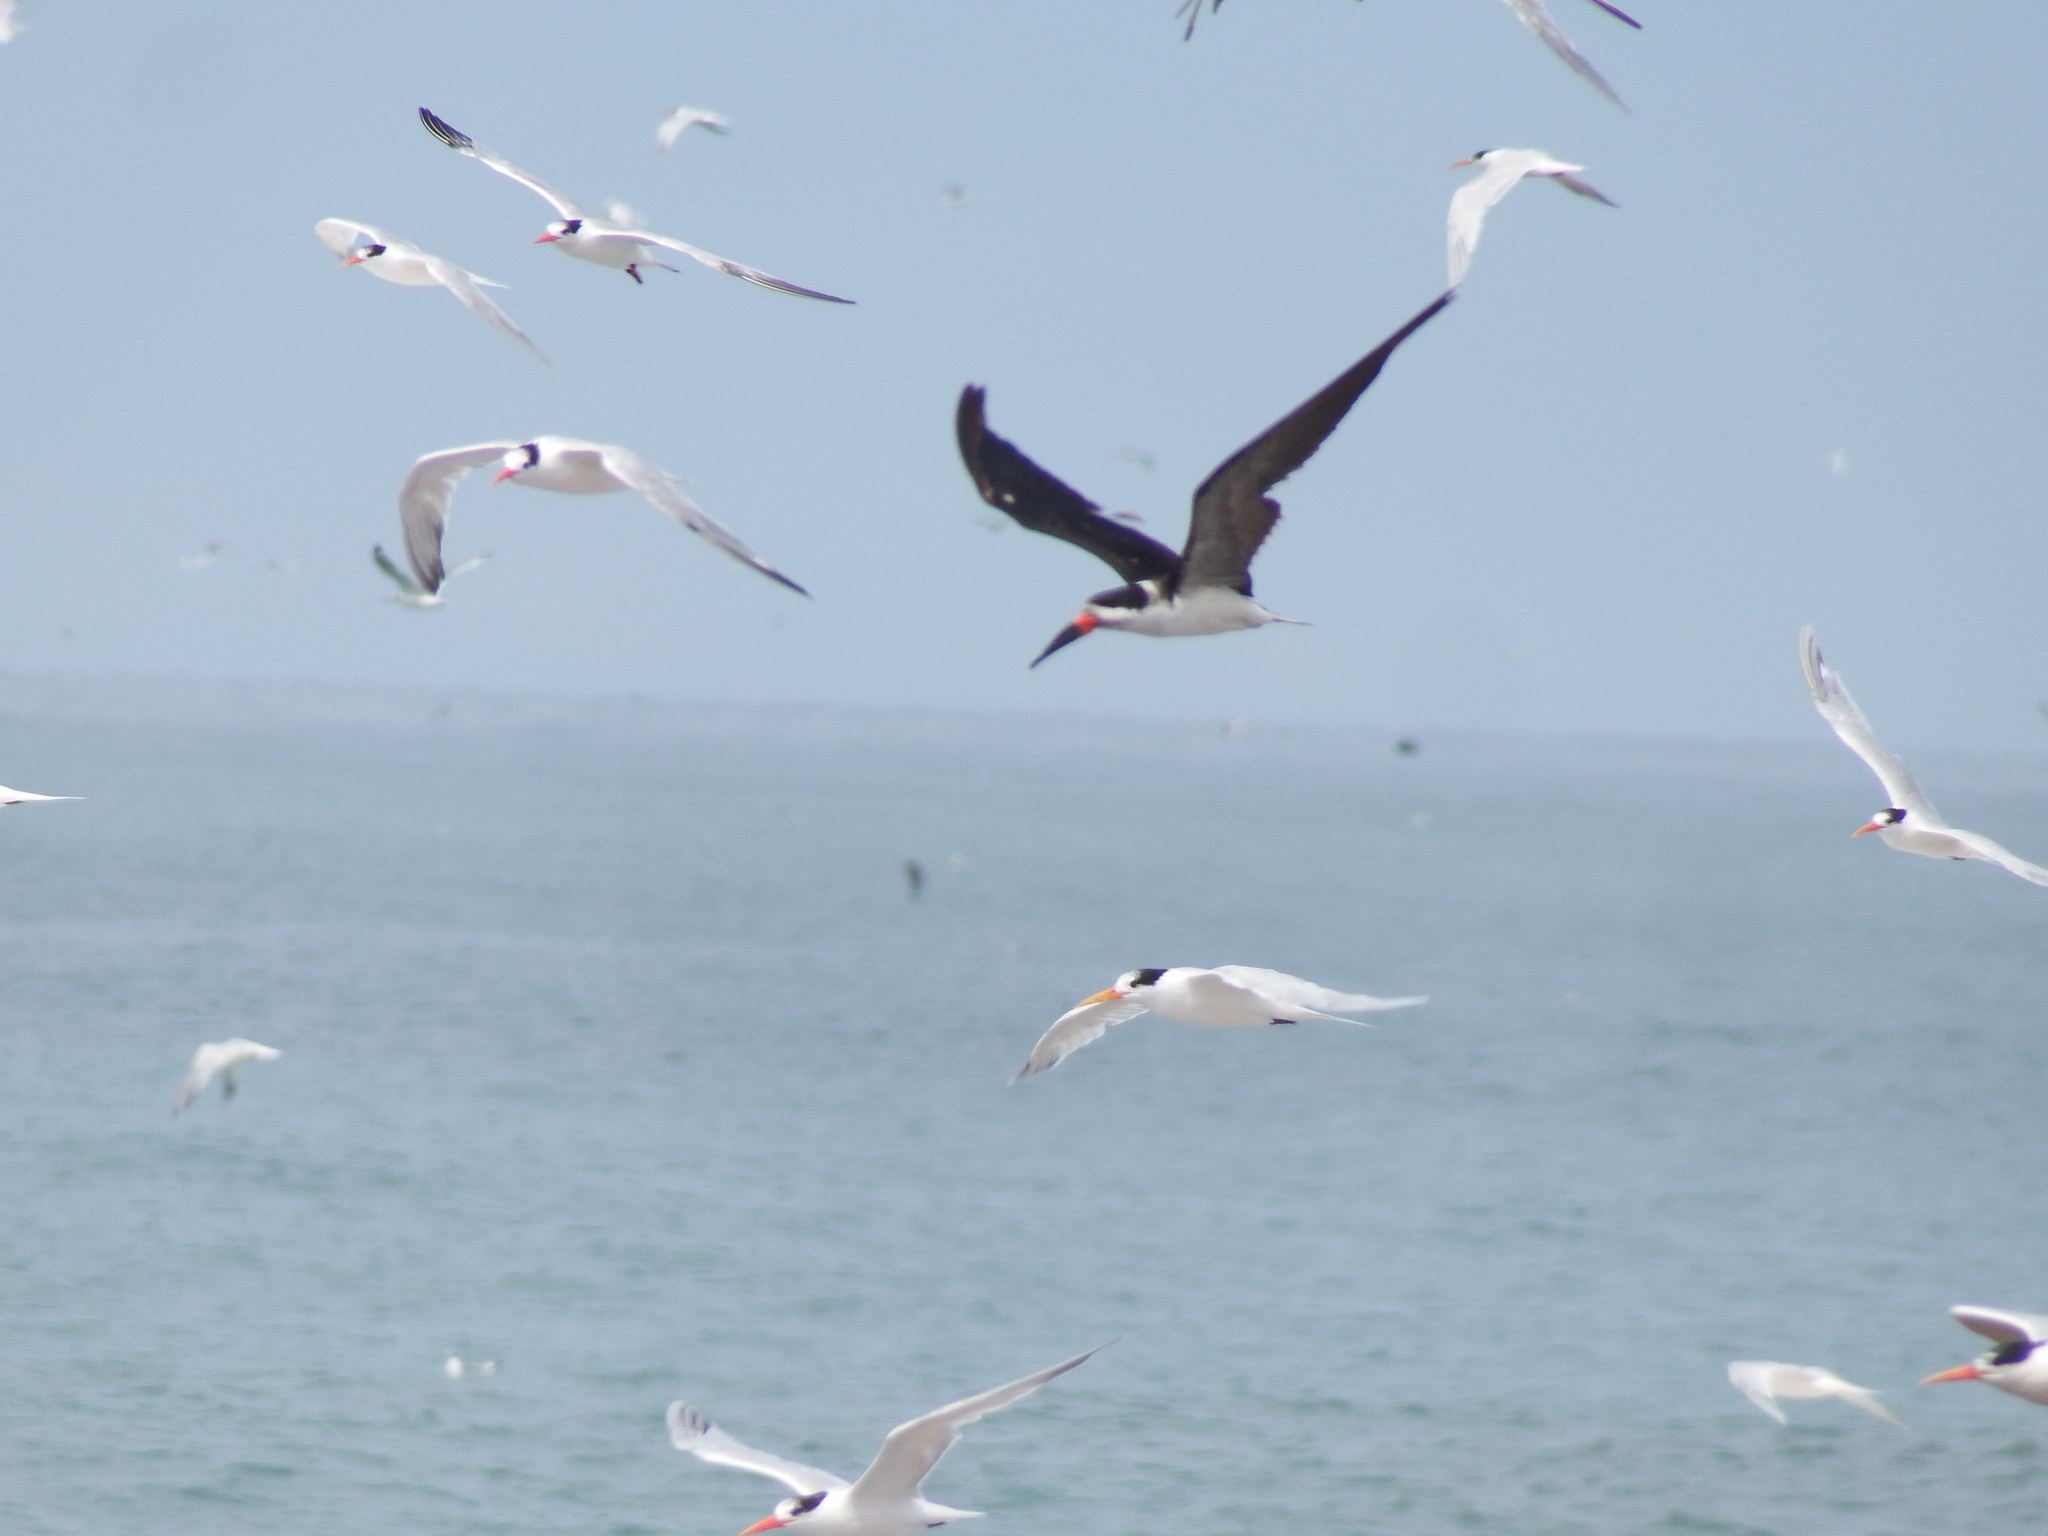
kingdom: Animalia
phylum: Chordata
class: Aves
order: Charadriiformes
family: Laridae
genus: Rynchops
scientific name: Rynchops niger
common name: Black skimmer
